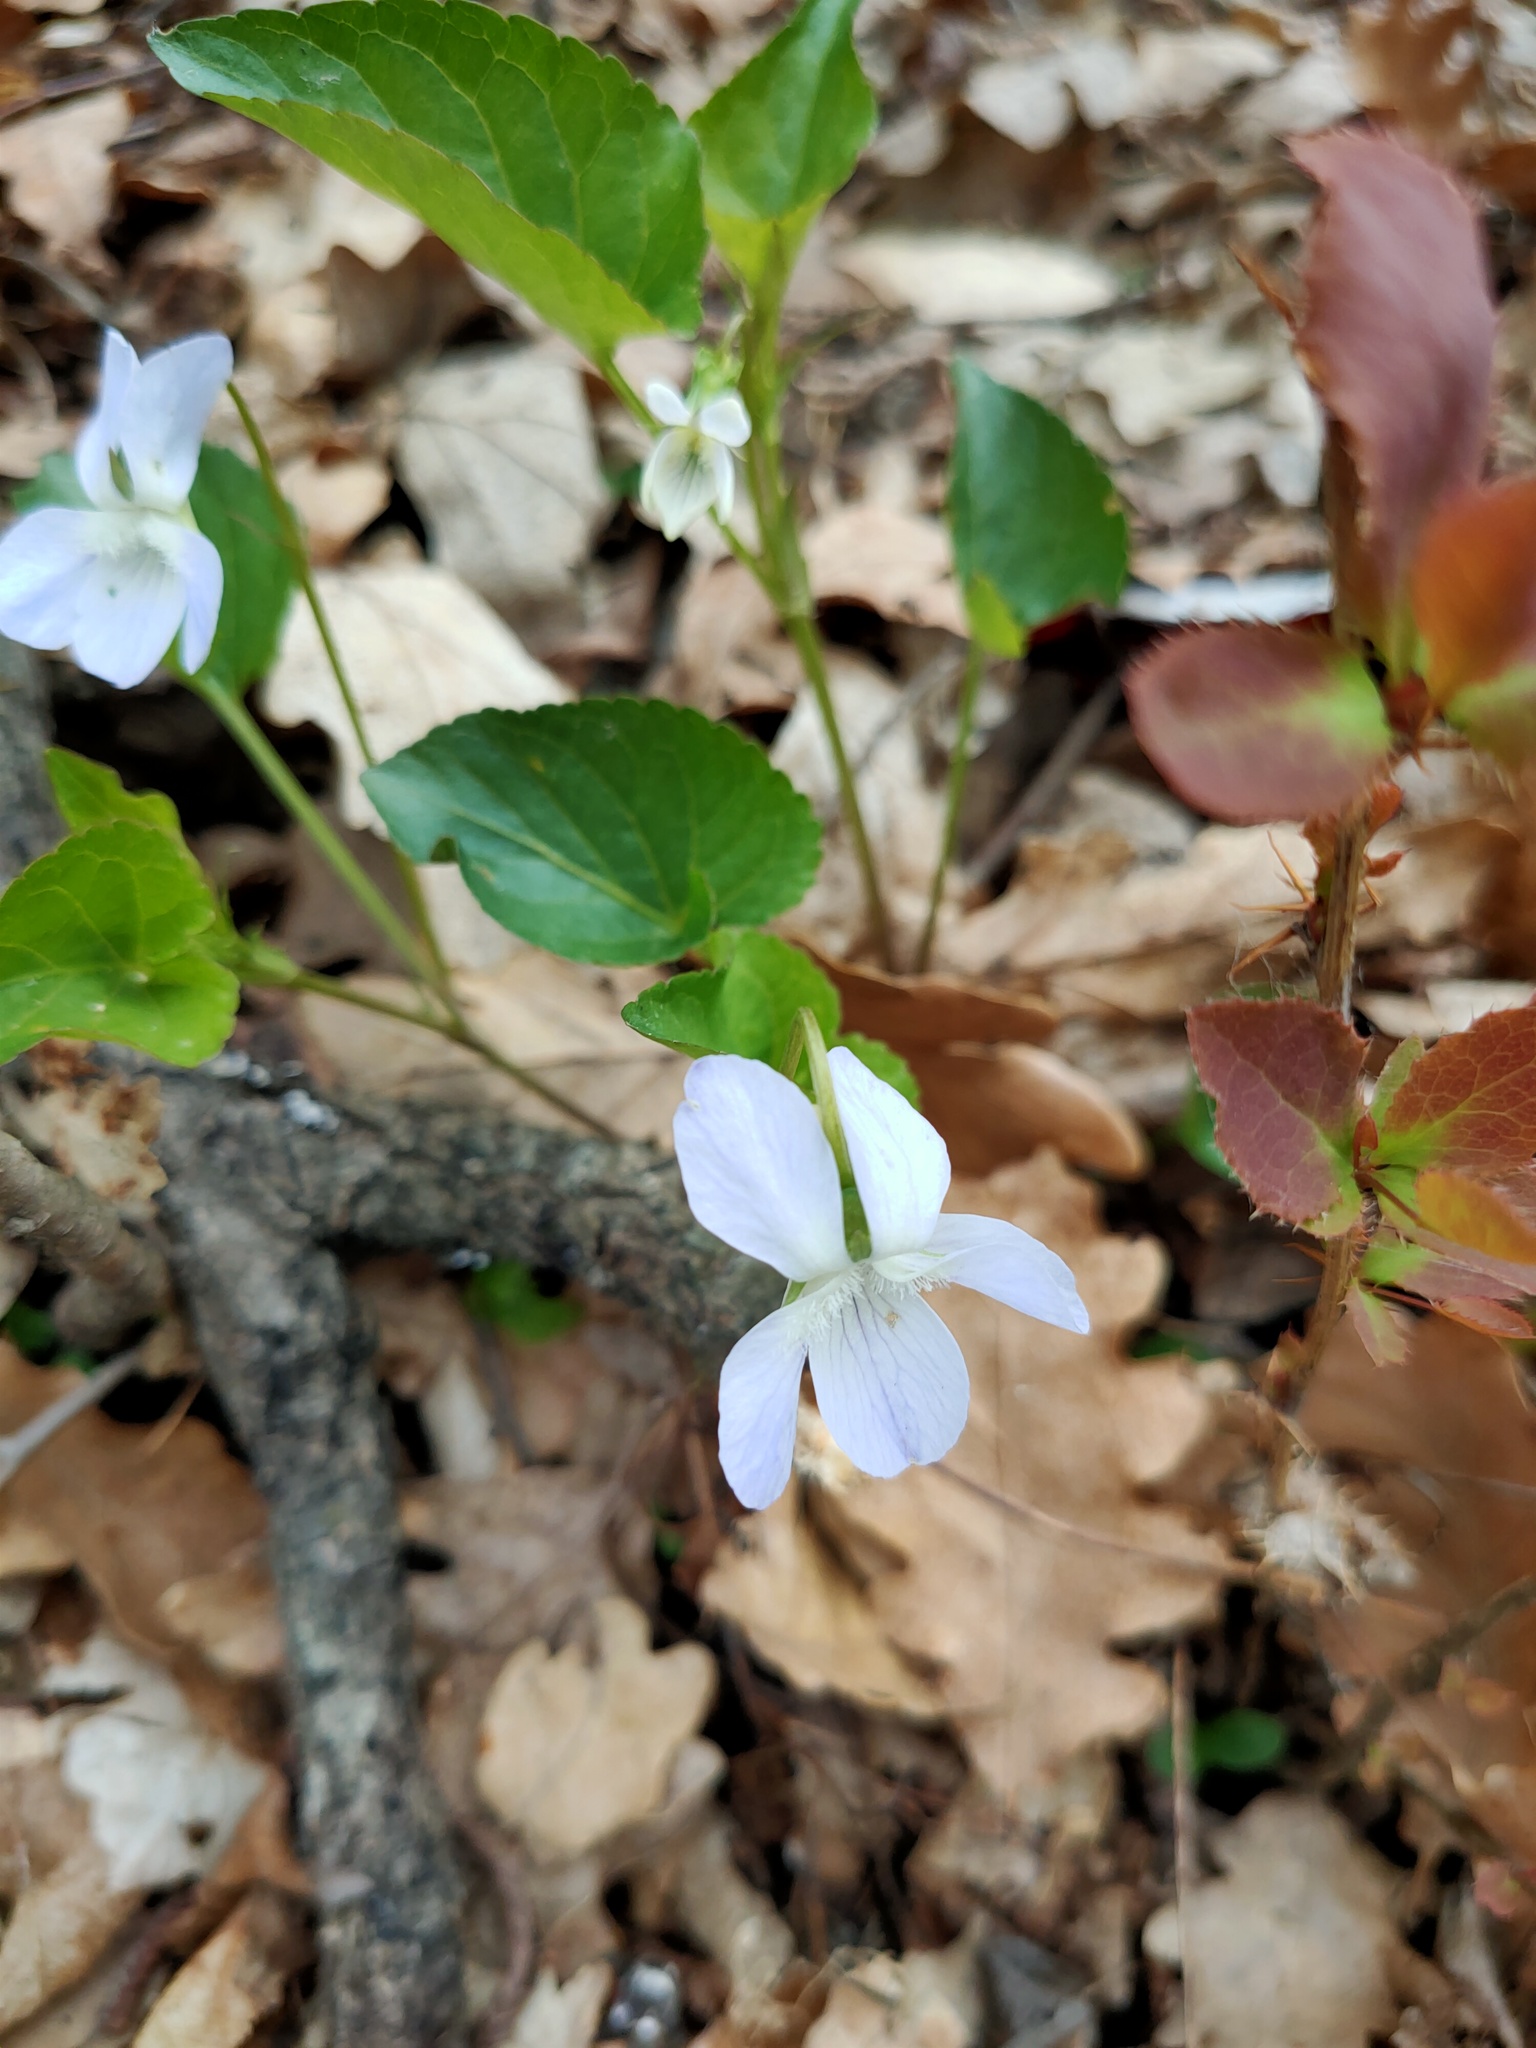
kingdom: Plantae
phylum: Tracheophyta
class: Magnoliopsida
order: Malpighiales
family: Violaceae
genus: Viola
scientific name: Viola sieheana
